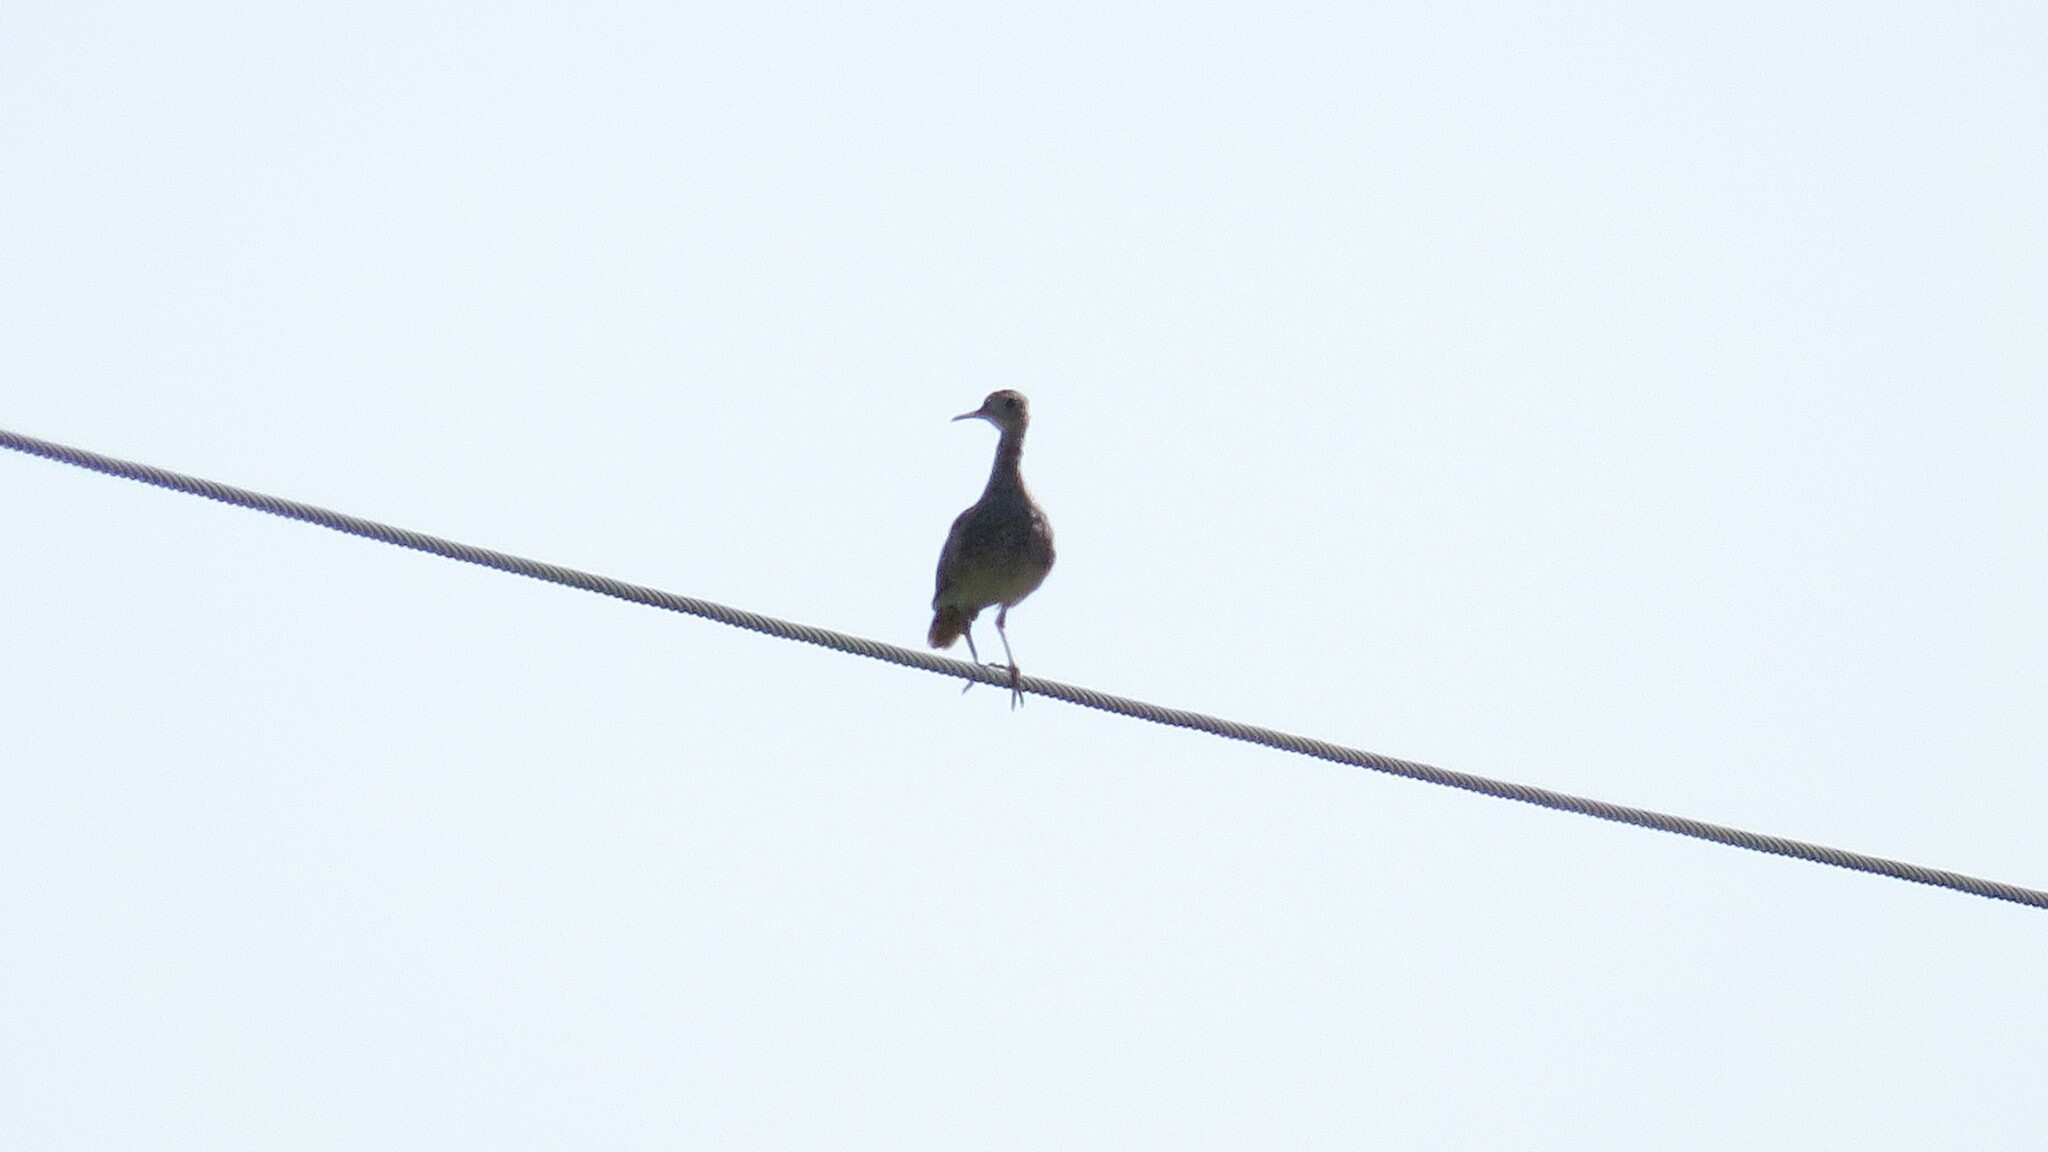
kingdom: Animalia
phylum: Chordata
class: Aves
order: Charadriiformes
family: Scolopacidae
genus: Bartramia
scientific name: Bartramia longicauda
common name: Upland sandpiper
